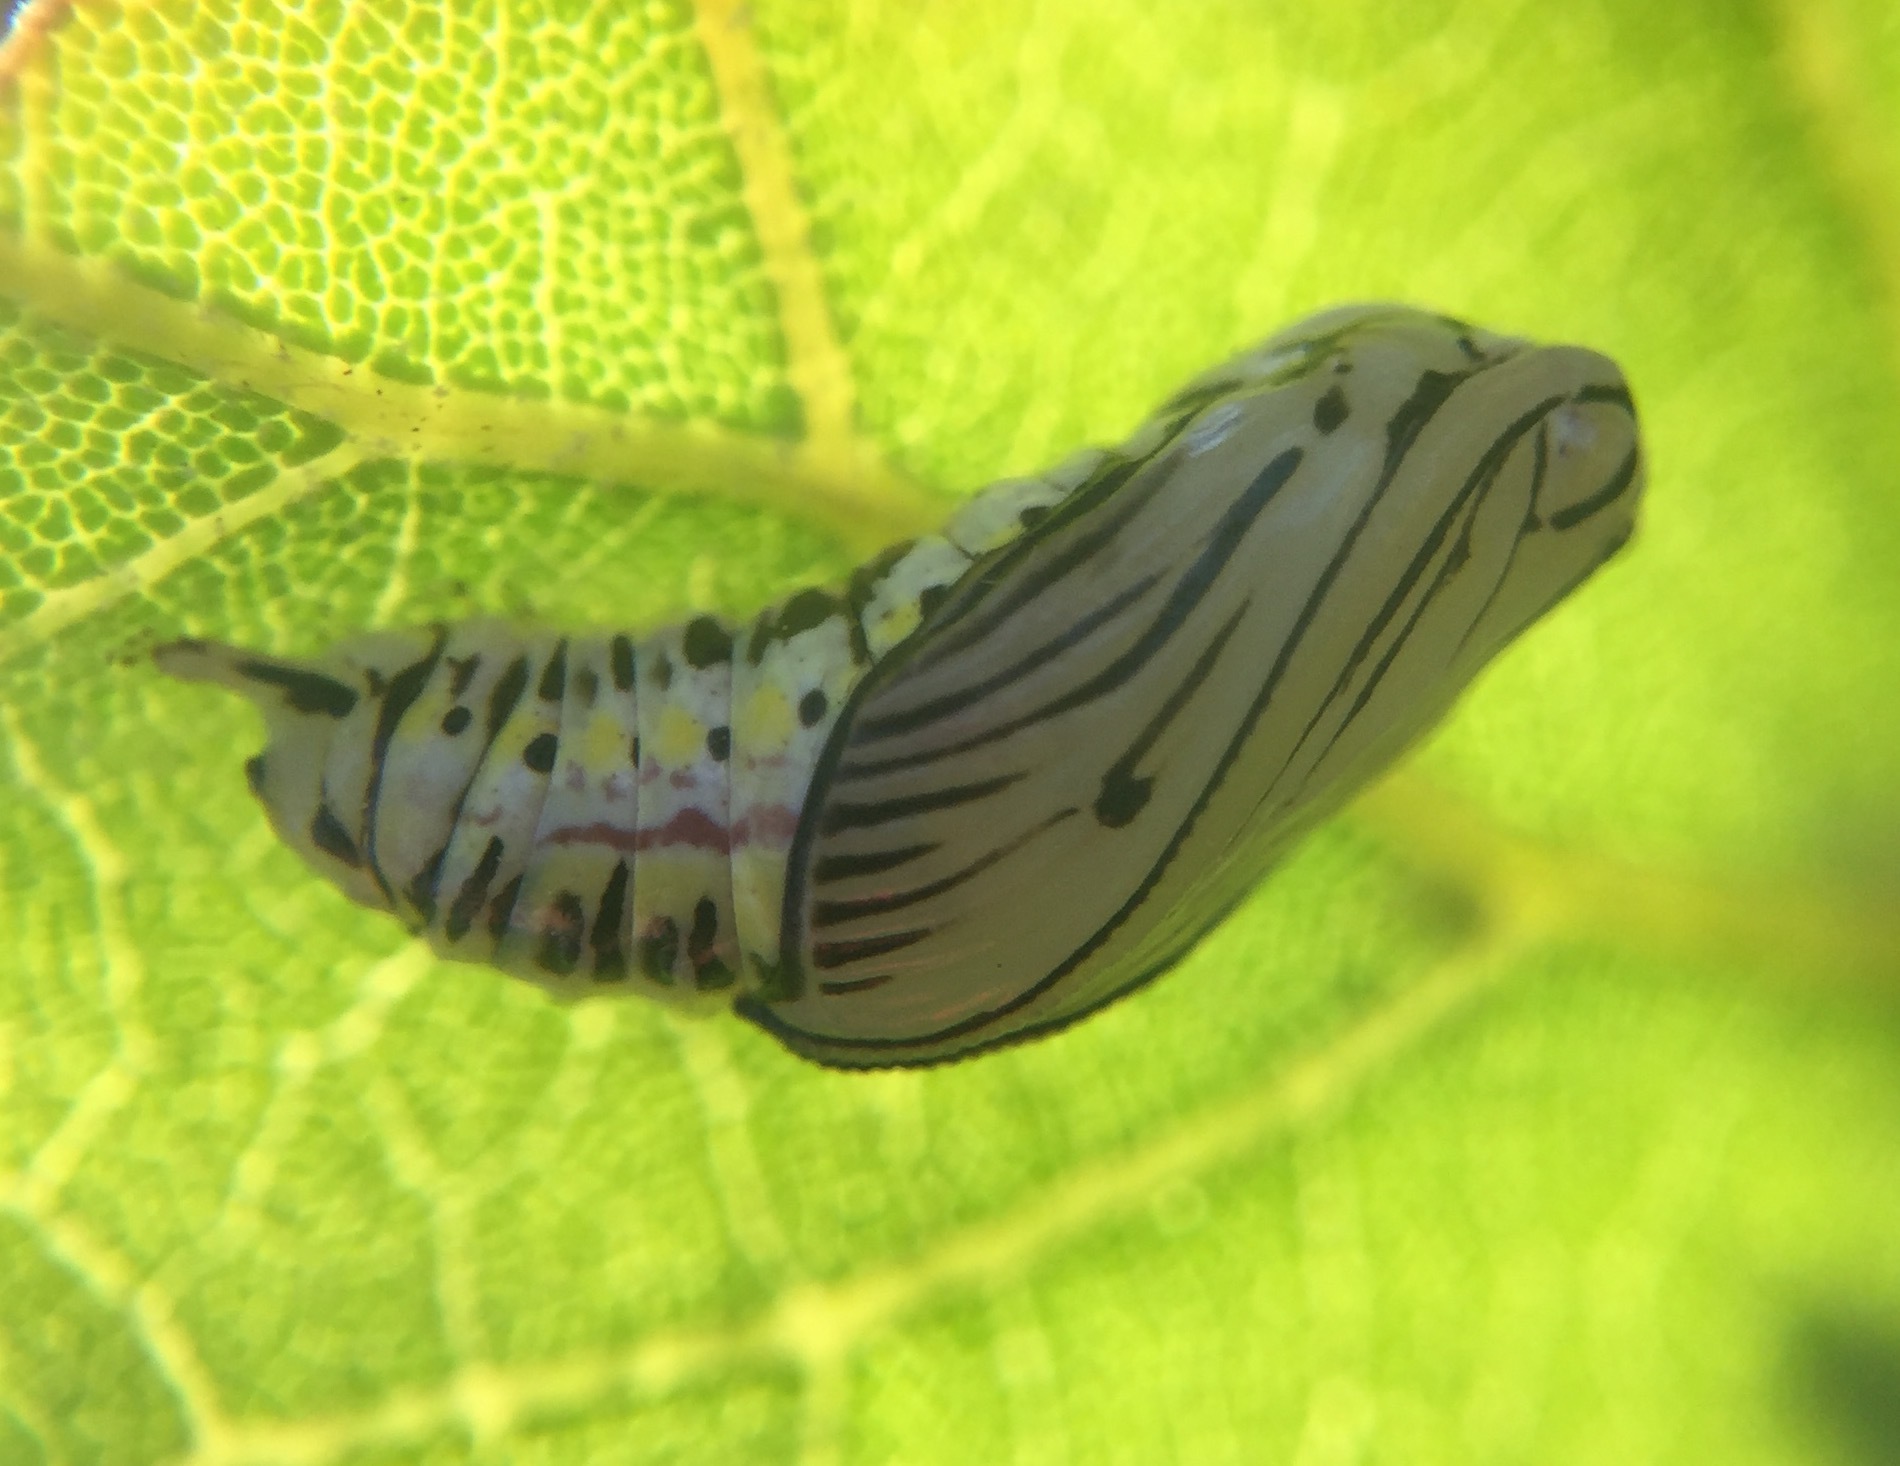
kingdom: Animalia
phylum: Arthropoda
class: Insecta
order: Lepidoptera
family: Notodontidae
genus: Phryganidia
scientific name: Phryganidia californica
